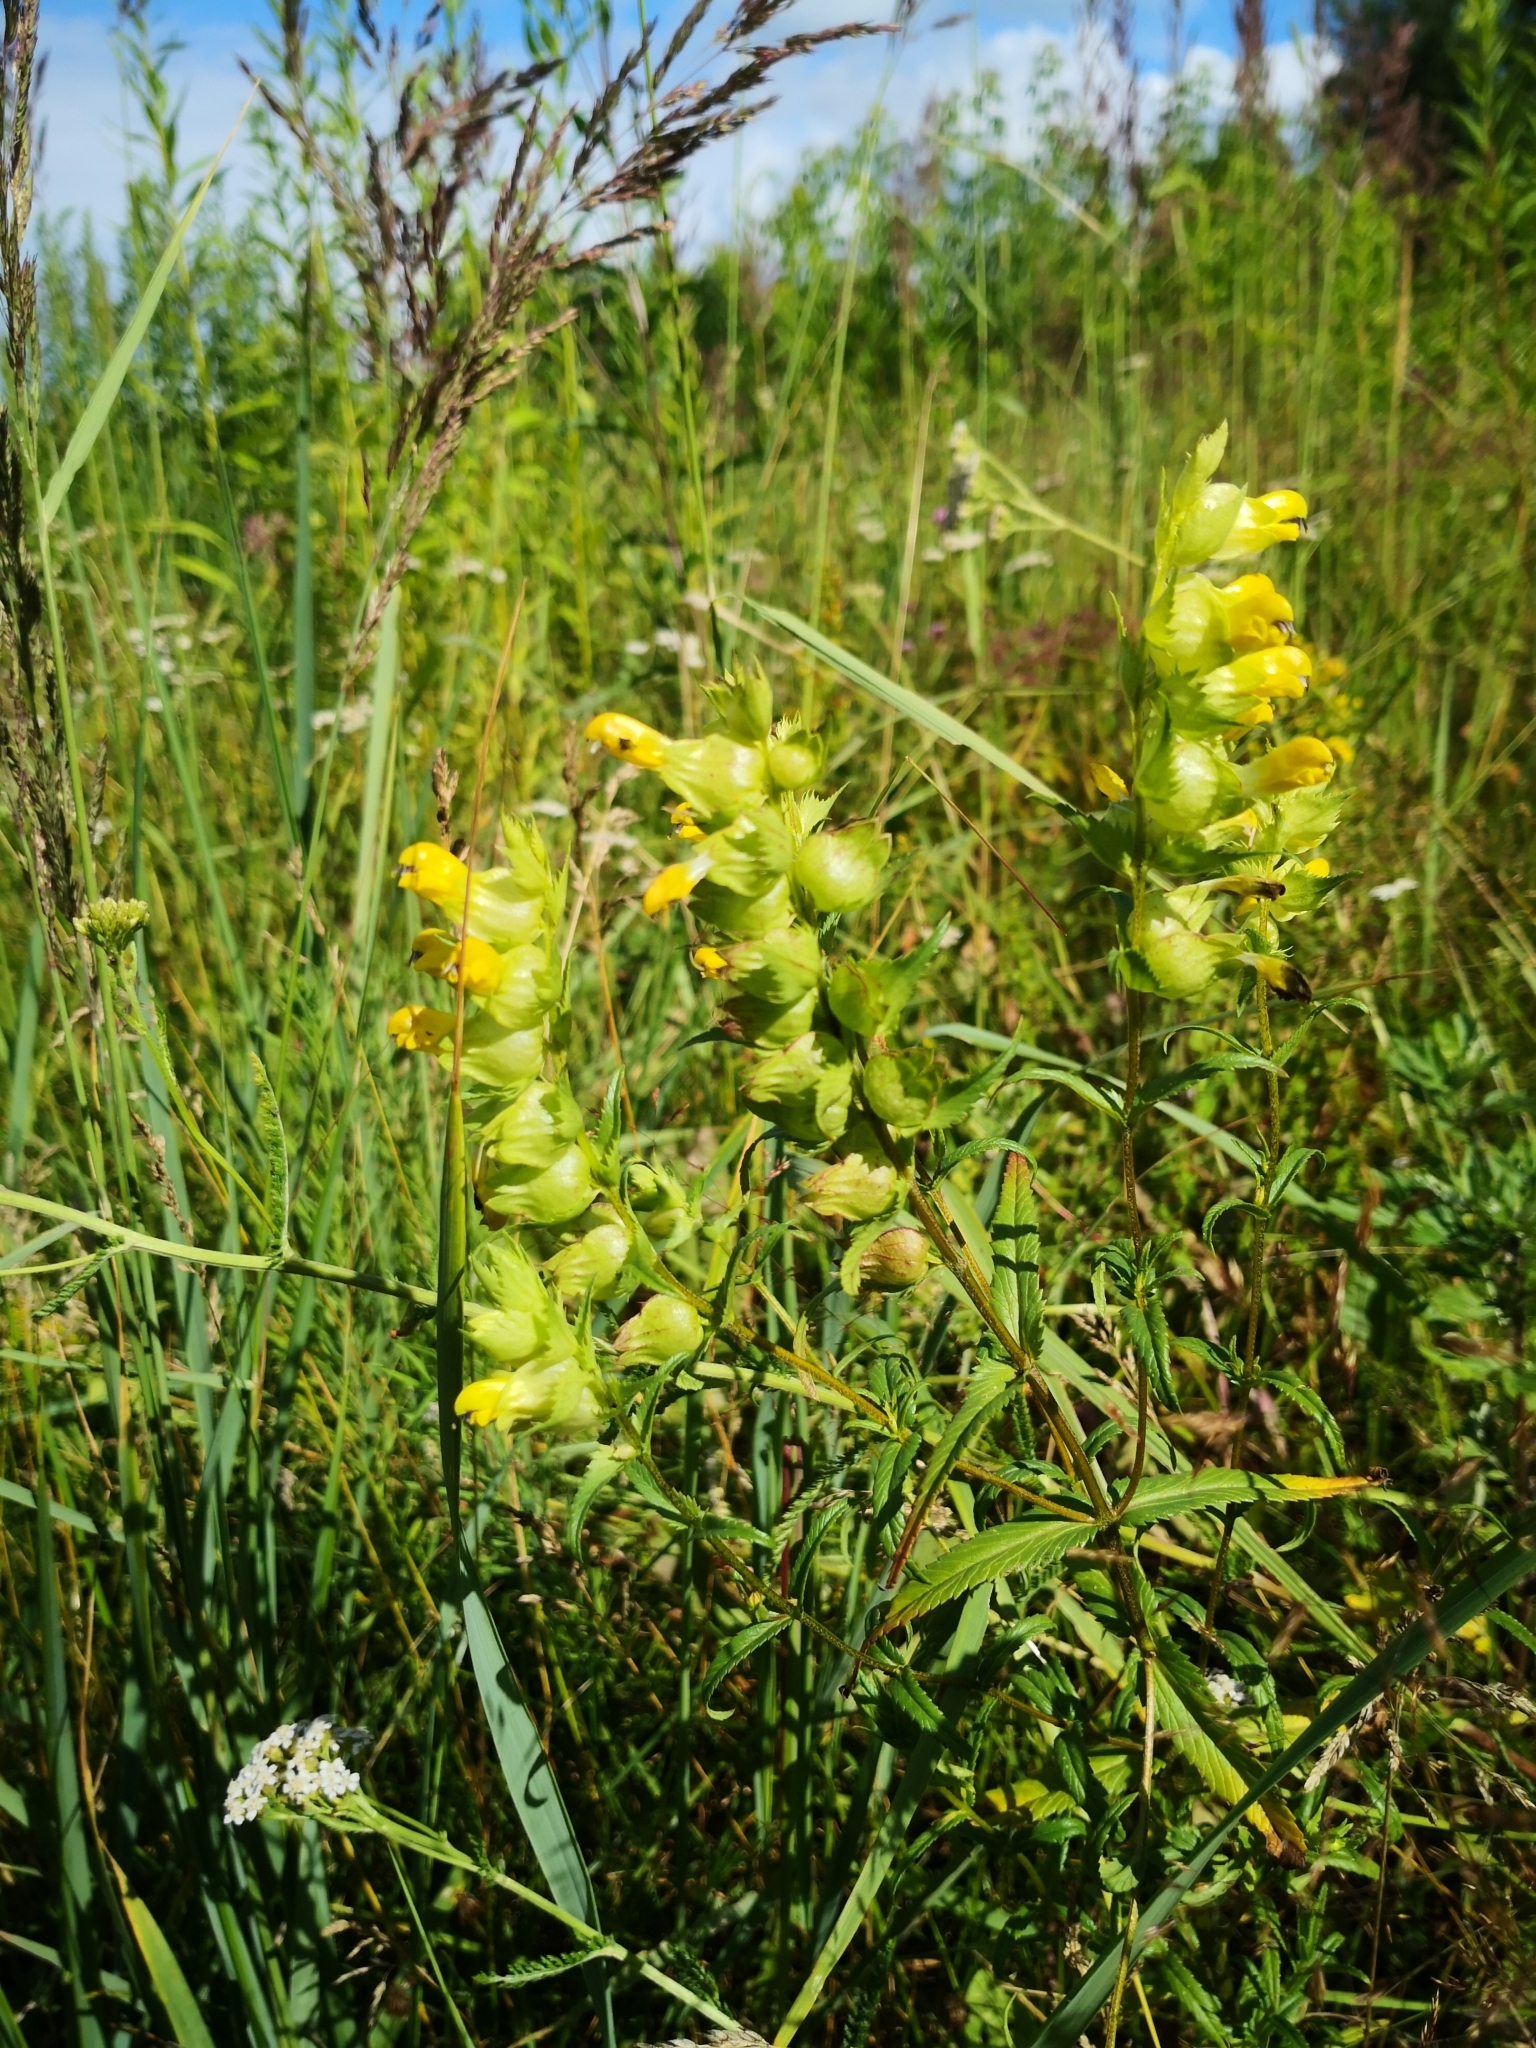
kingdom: Plantae
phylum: Tracheophyta
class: Magnoliopsida
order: Lamiales
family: Orobanchaceae
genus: Rhinanthus
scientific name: Rhinanthus serotinus
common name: Late-flowering yellow rattle
